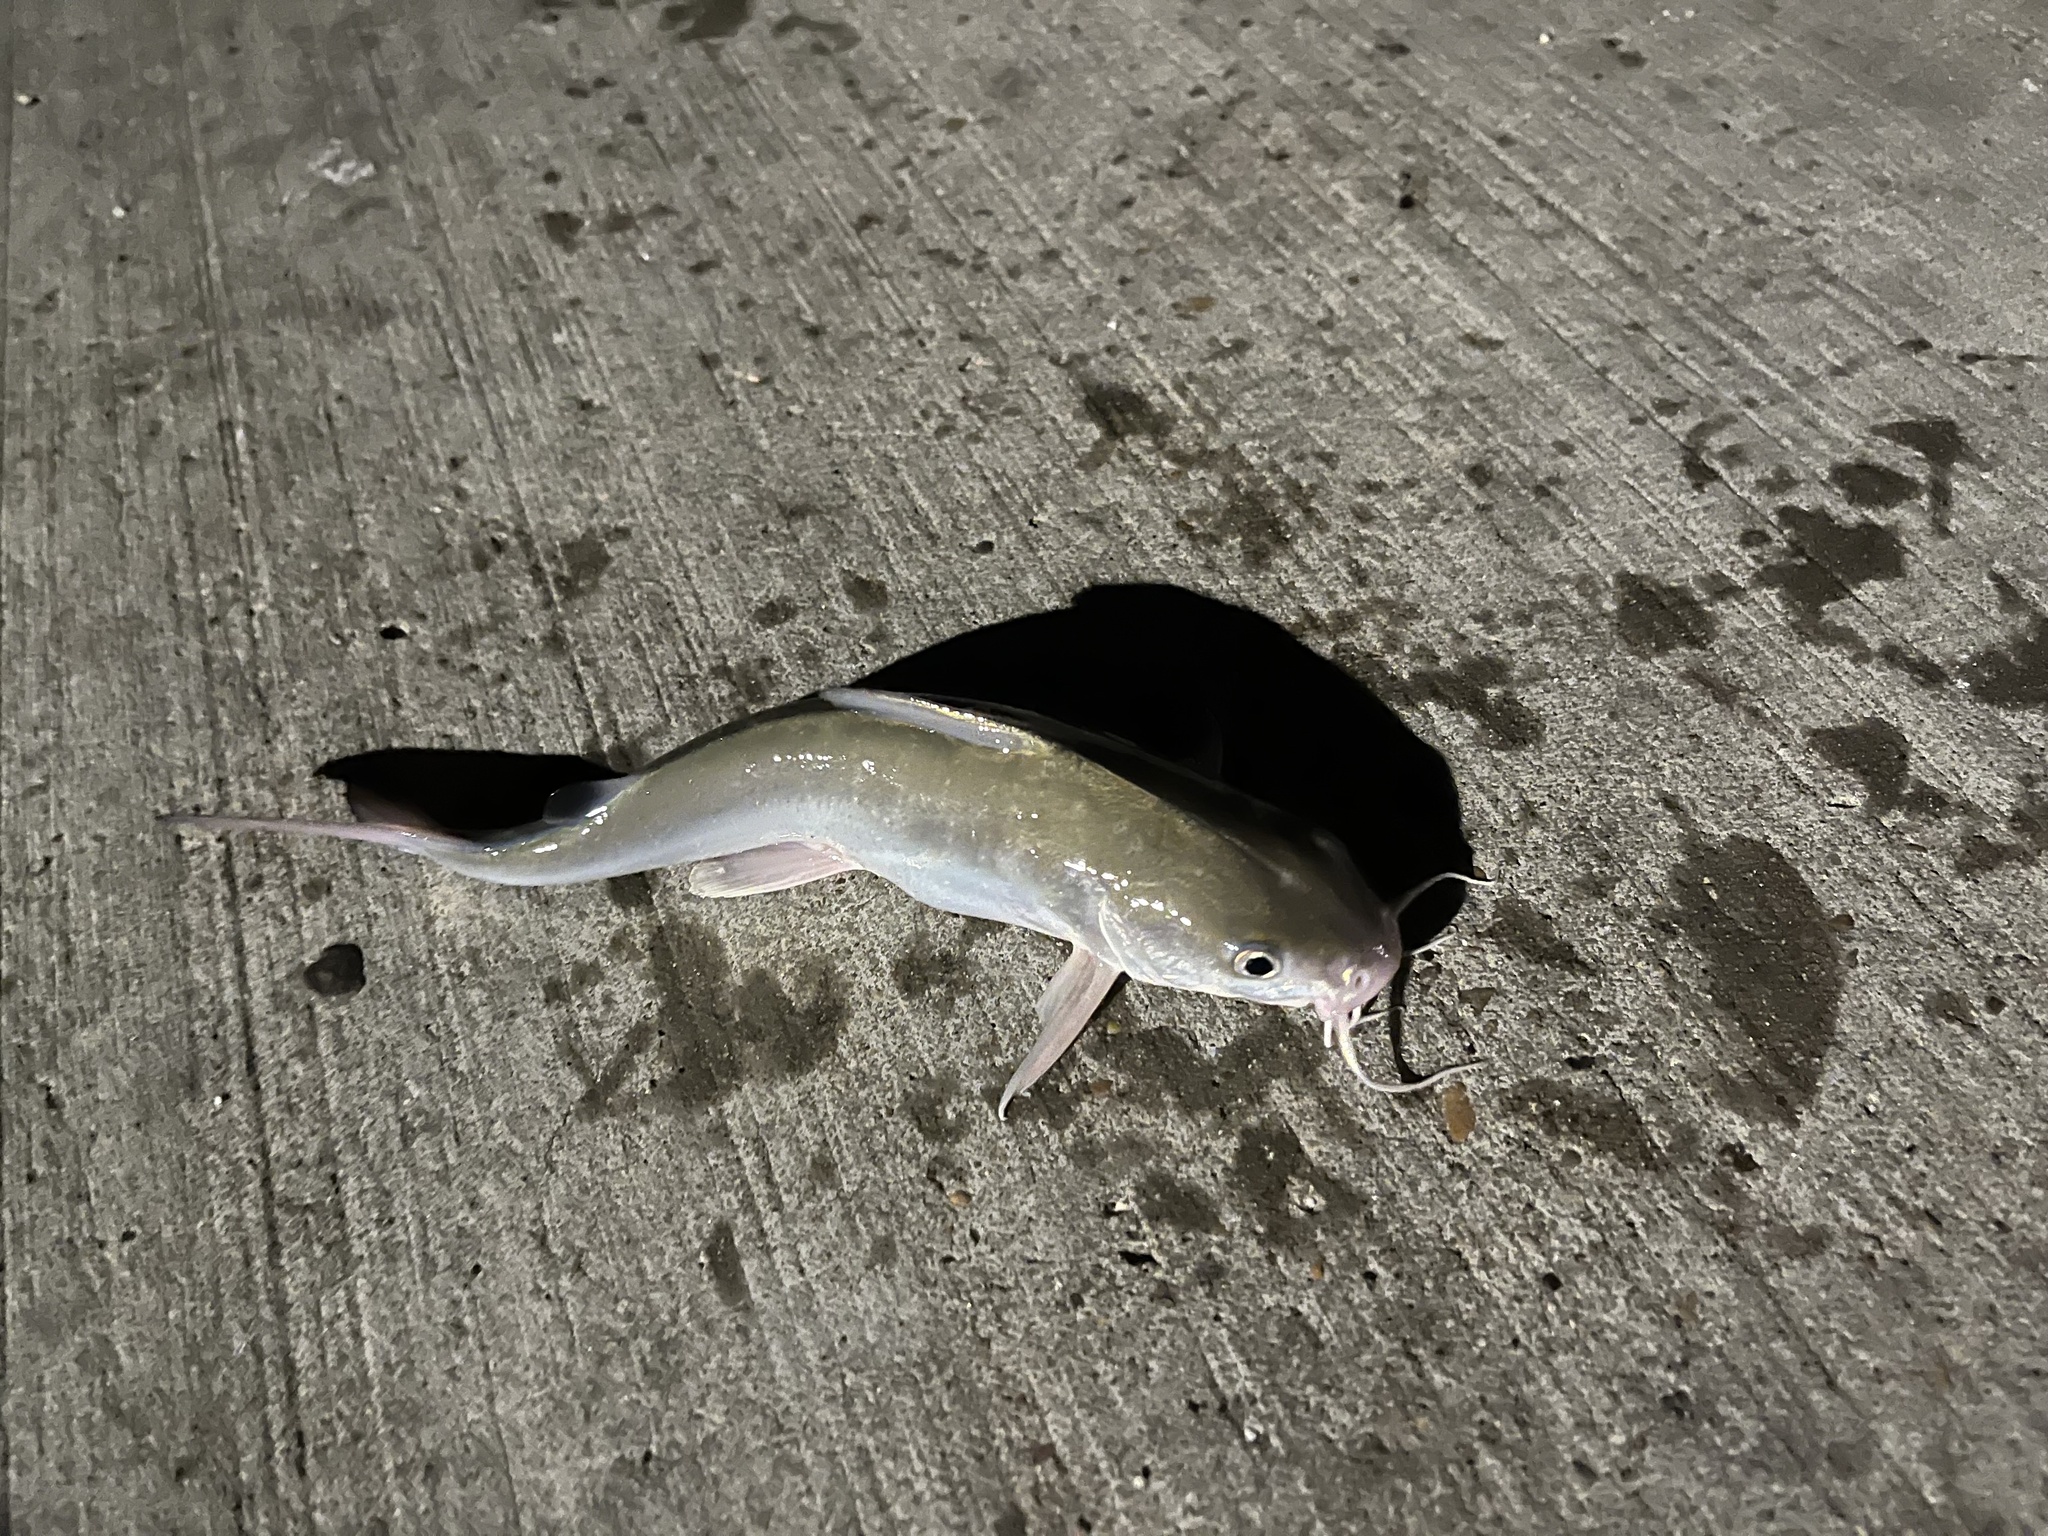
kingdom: Animalia
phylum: Chordata
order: Siluriformes
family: Ariidae
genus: Ariopsis
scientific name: Ariopsis felis
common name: Hardhead catfish
